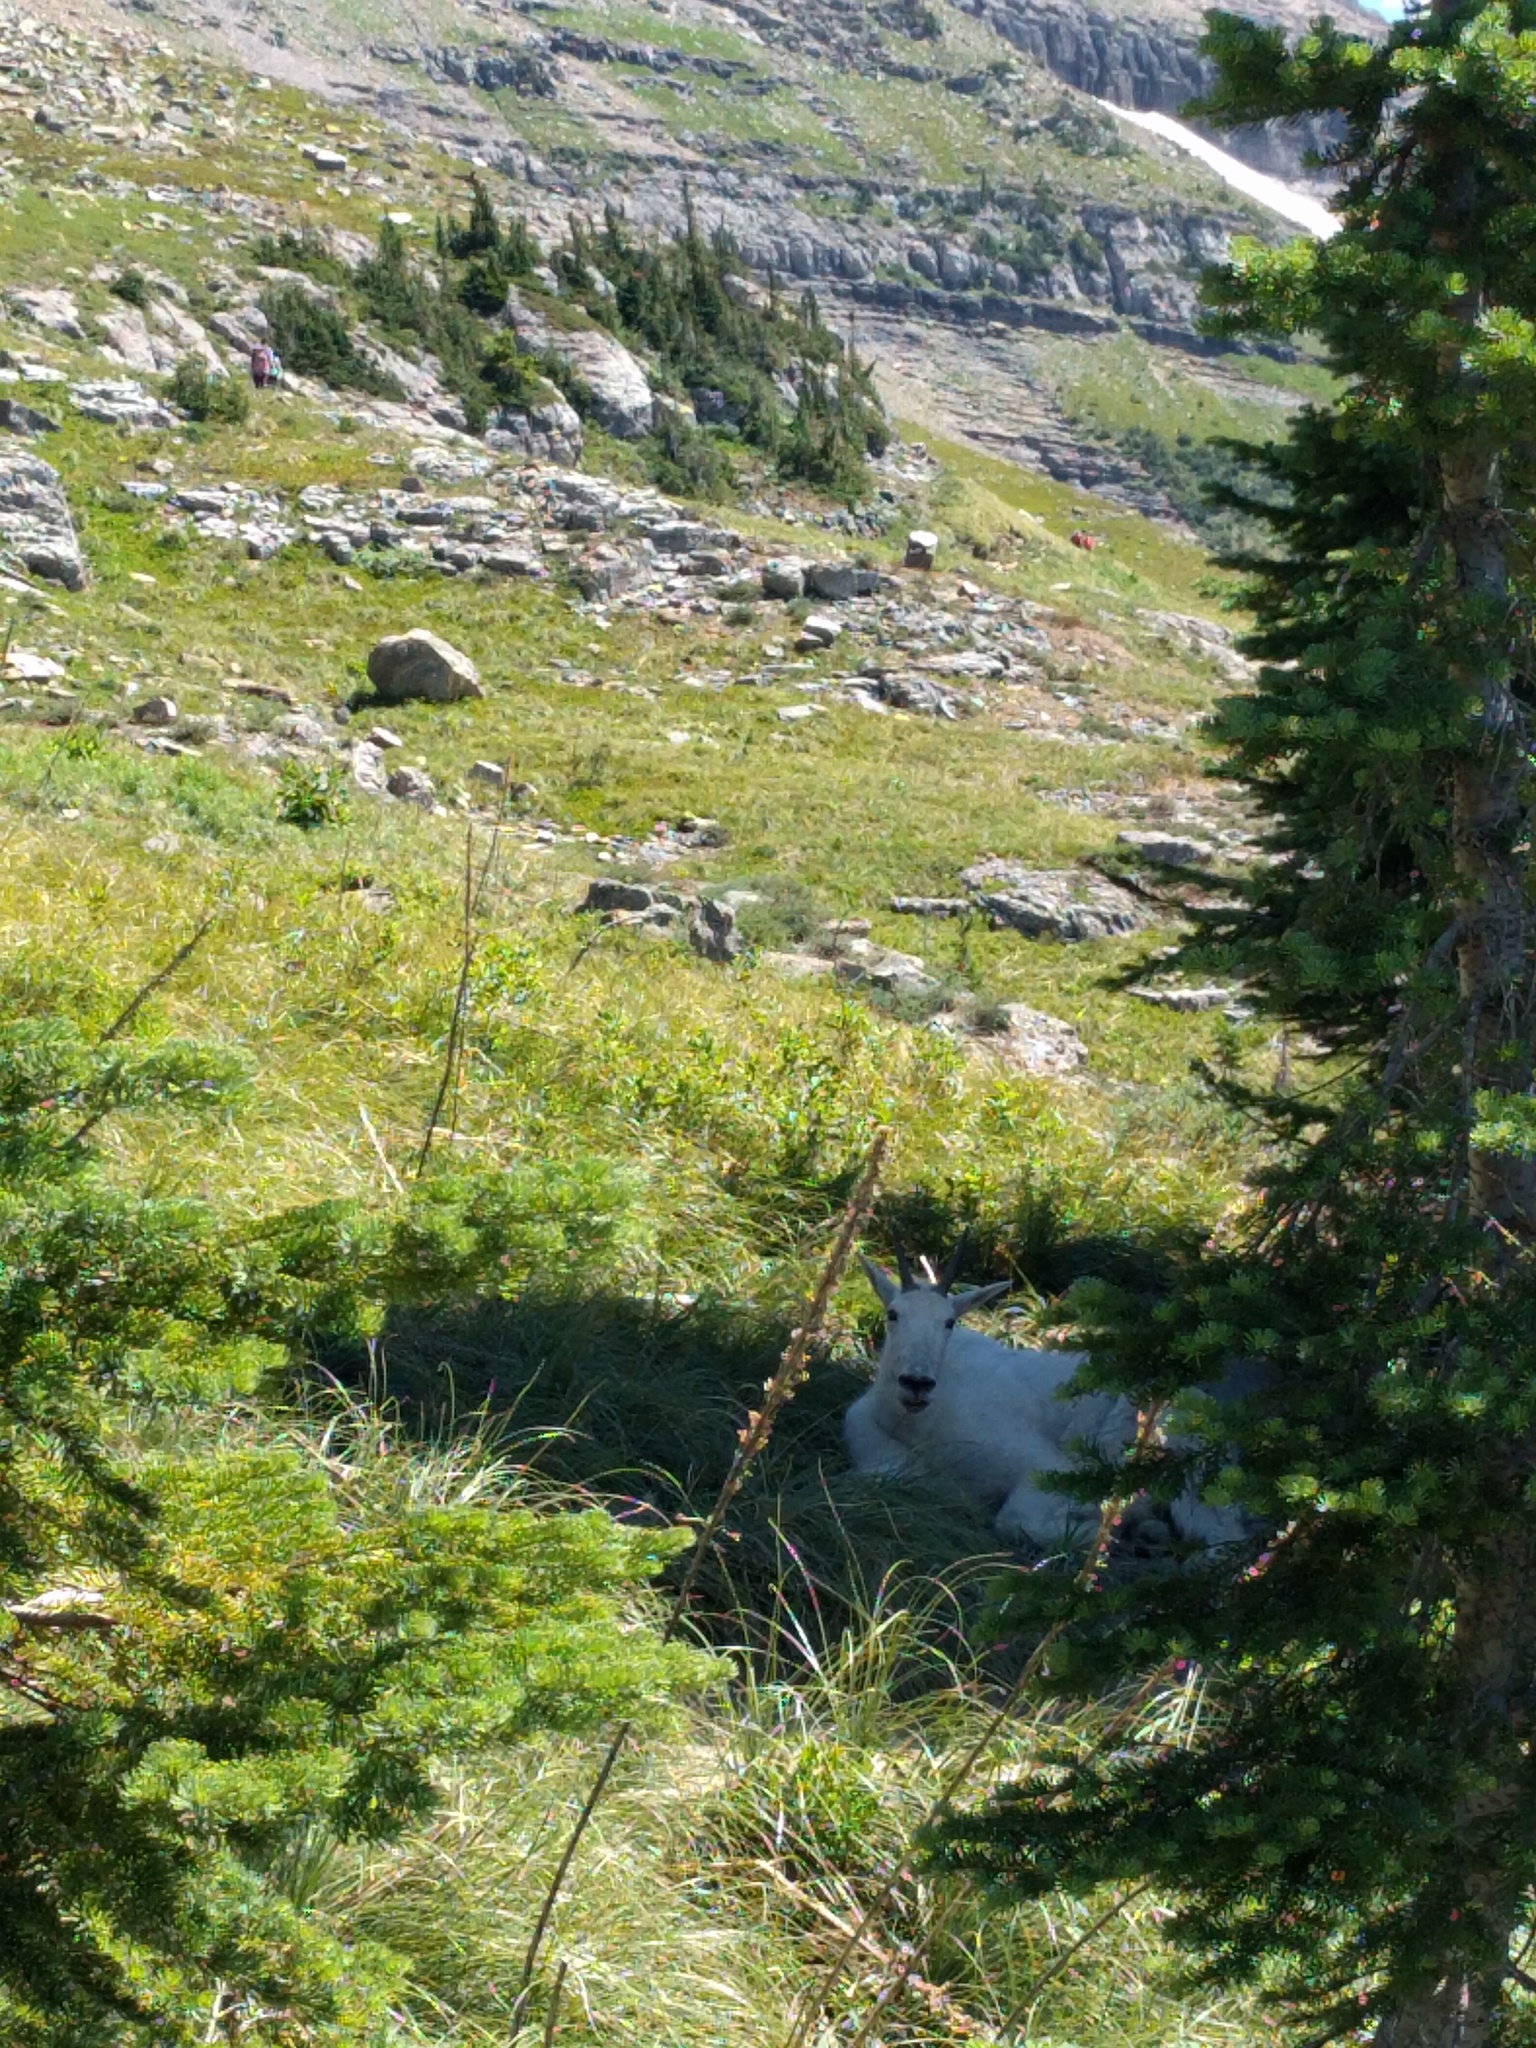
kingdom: Animalia
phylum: Chordata
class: Mammalia
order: Artiodactyla
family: Bovidae
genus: Oreamnos
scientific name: Oreamnos americanus
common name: Mountain goat
